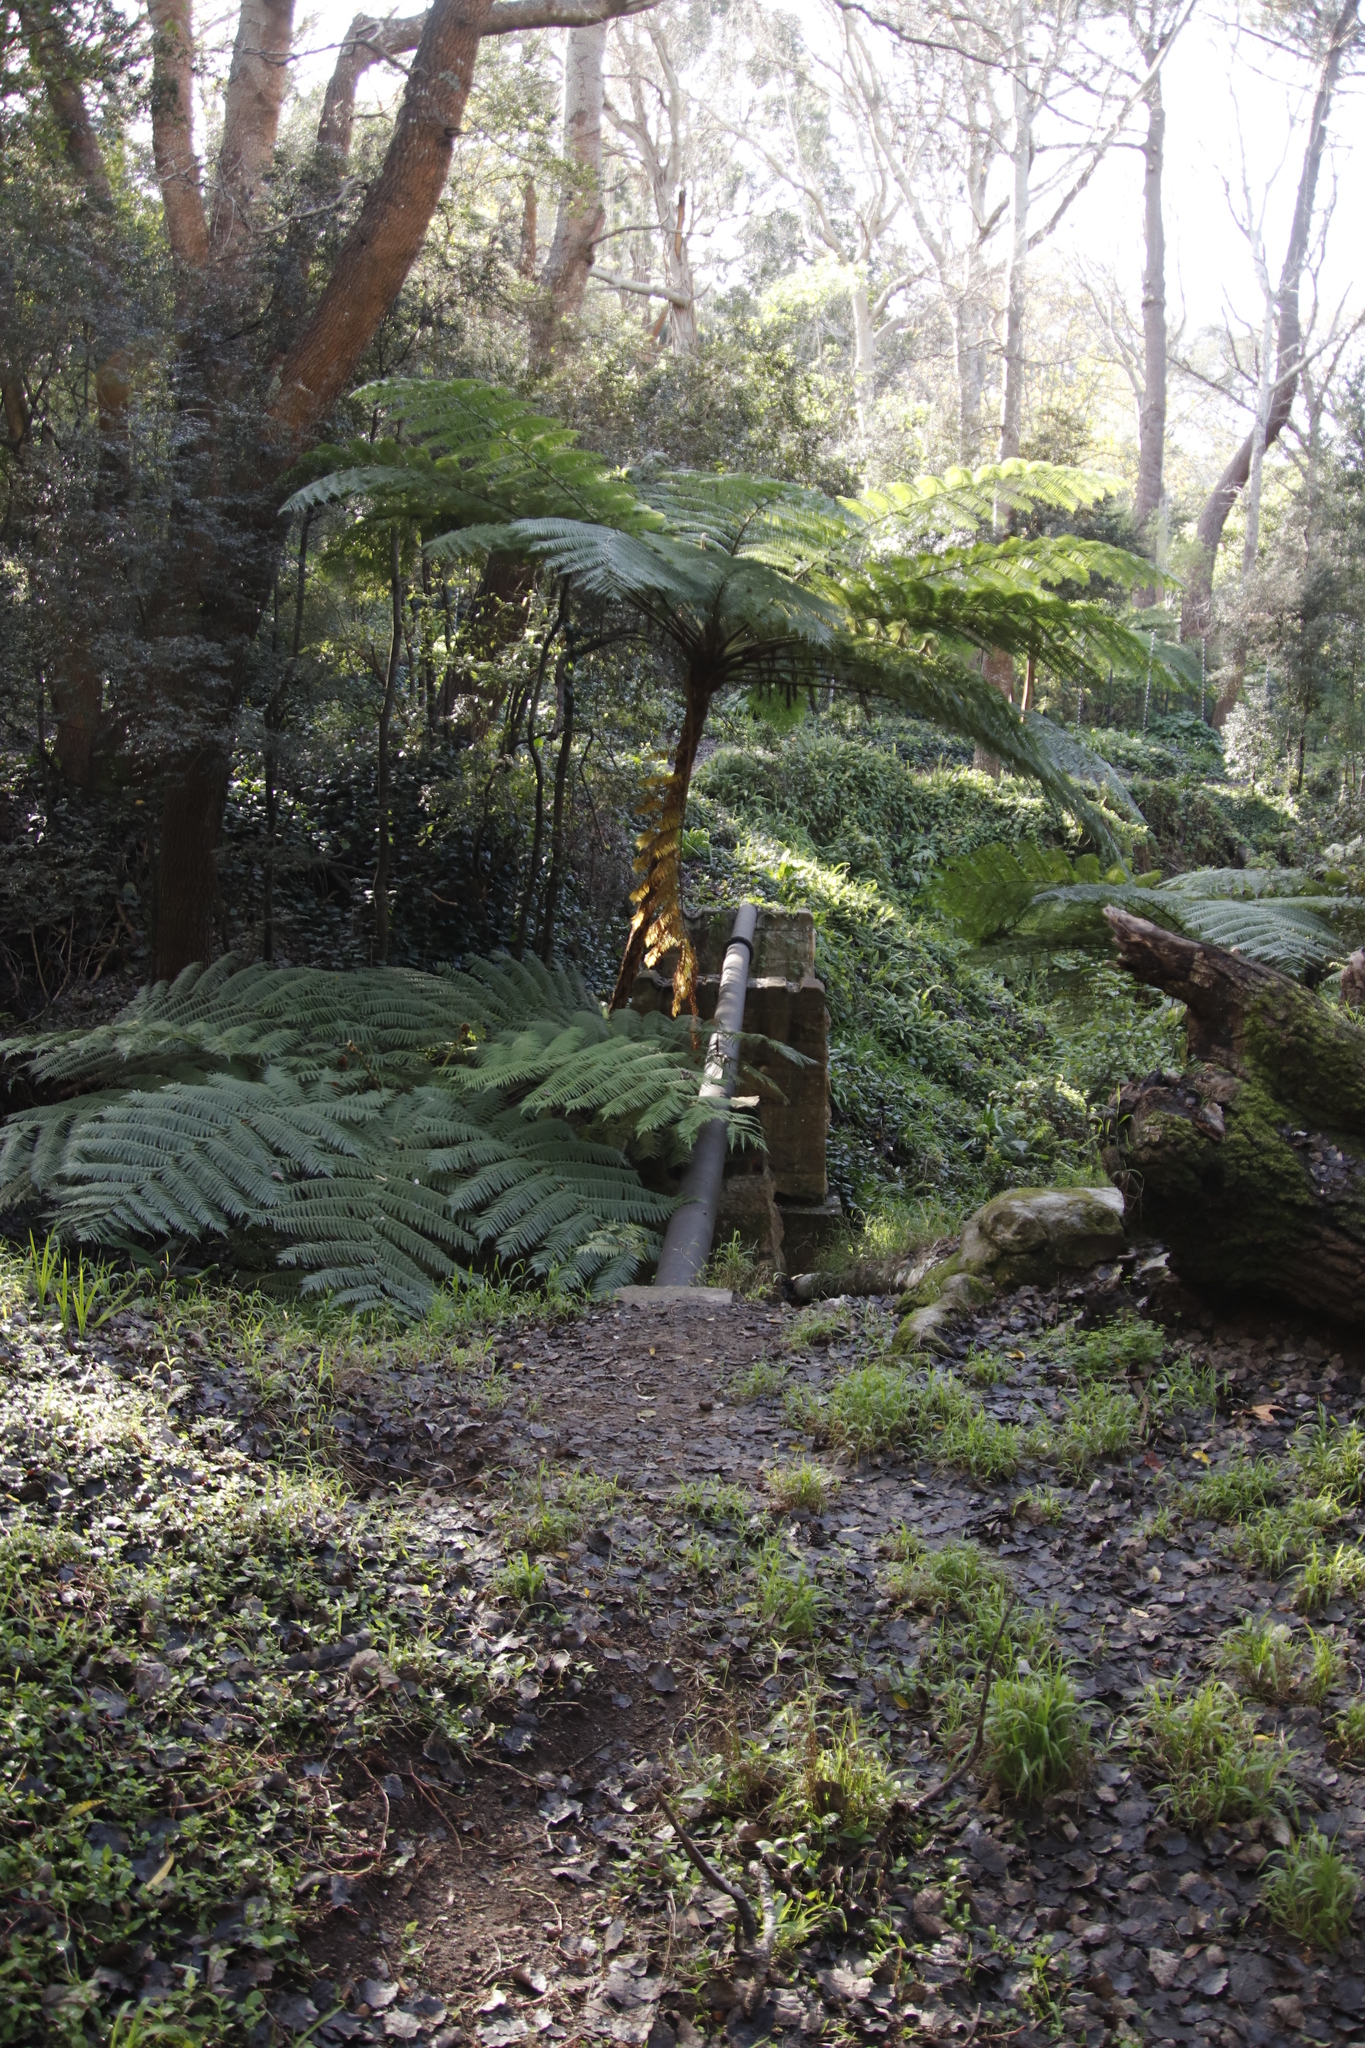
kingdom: Plantae
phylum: Tracheophyta
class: Polypodiopsida
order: Cyatheales
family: Cyatheaceae
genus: Sphaeropteris
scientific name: Sphaeropteris cooperi
